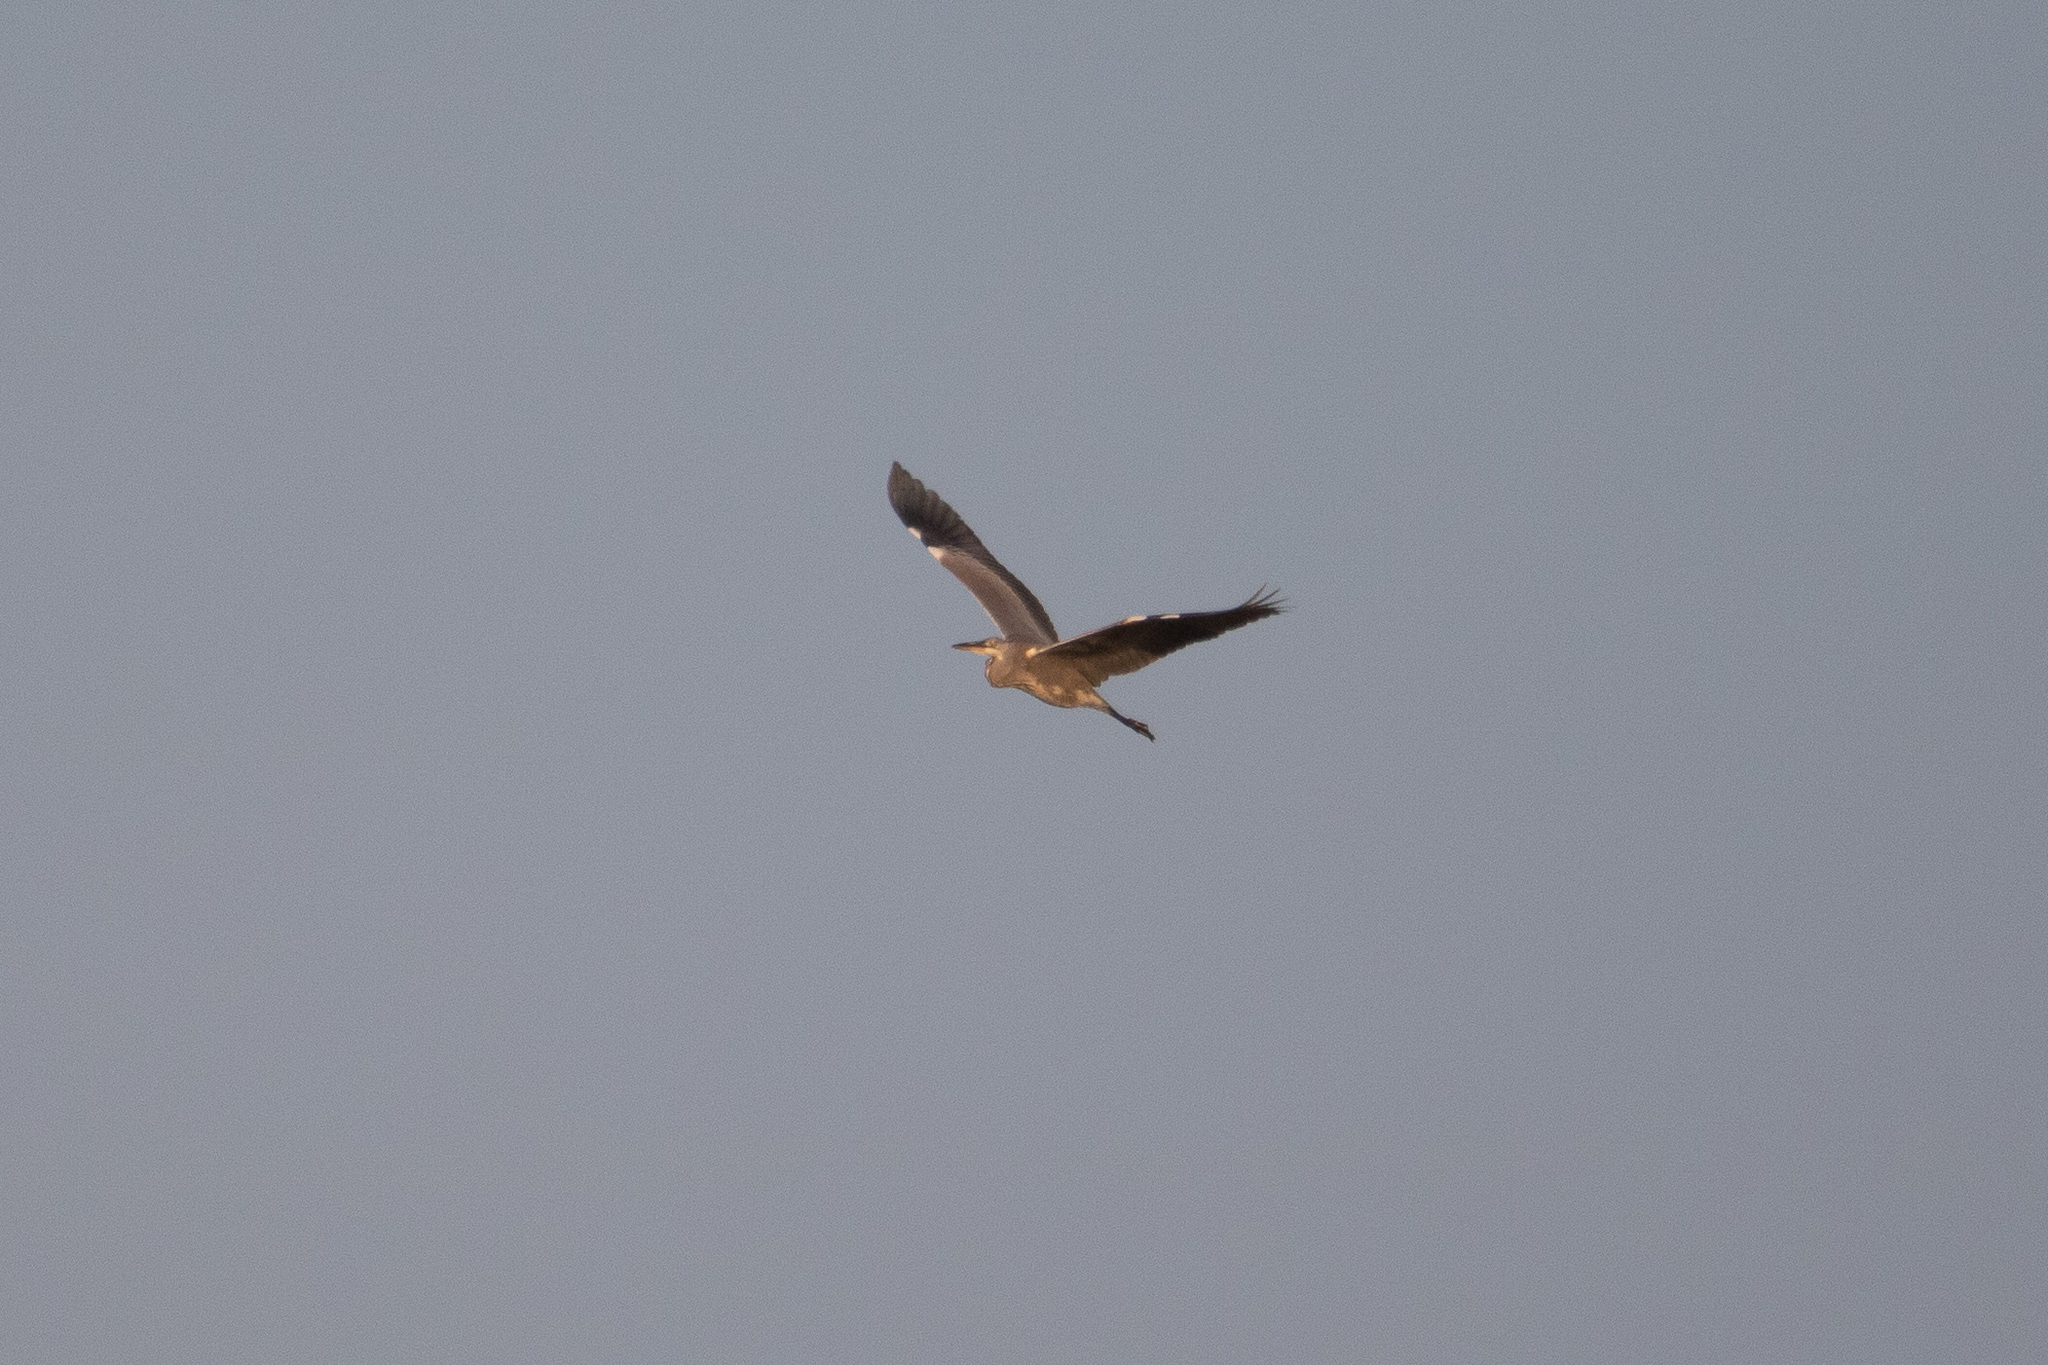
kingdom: Animalia
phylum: Chordata
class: Aves
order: Pelecaniformes
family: Ardeidae
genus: Ardea
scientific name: Ardea cinerea
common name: Grey heron
